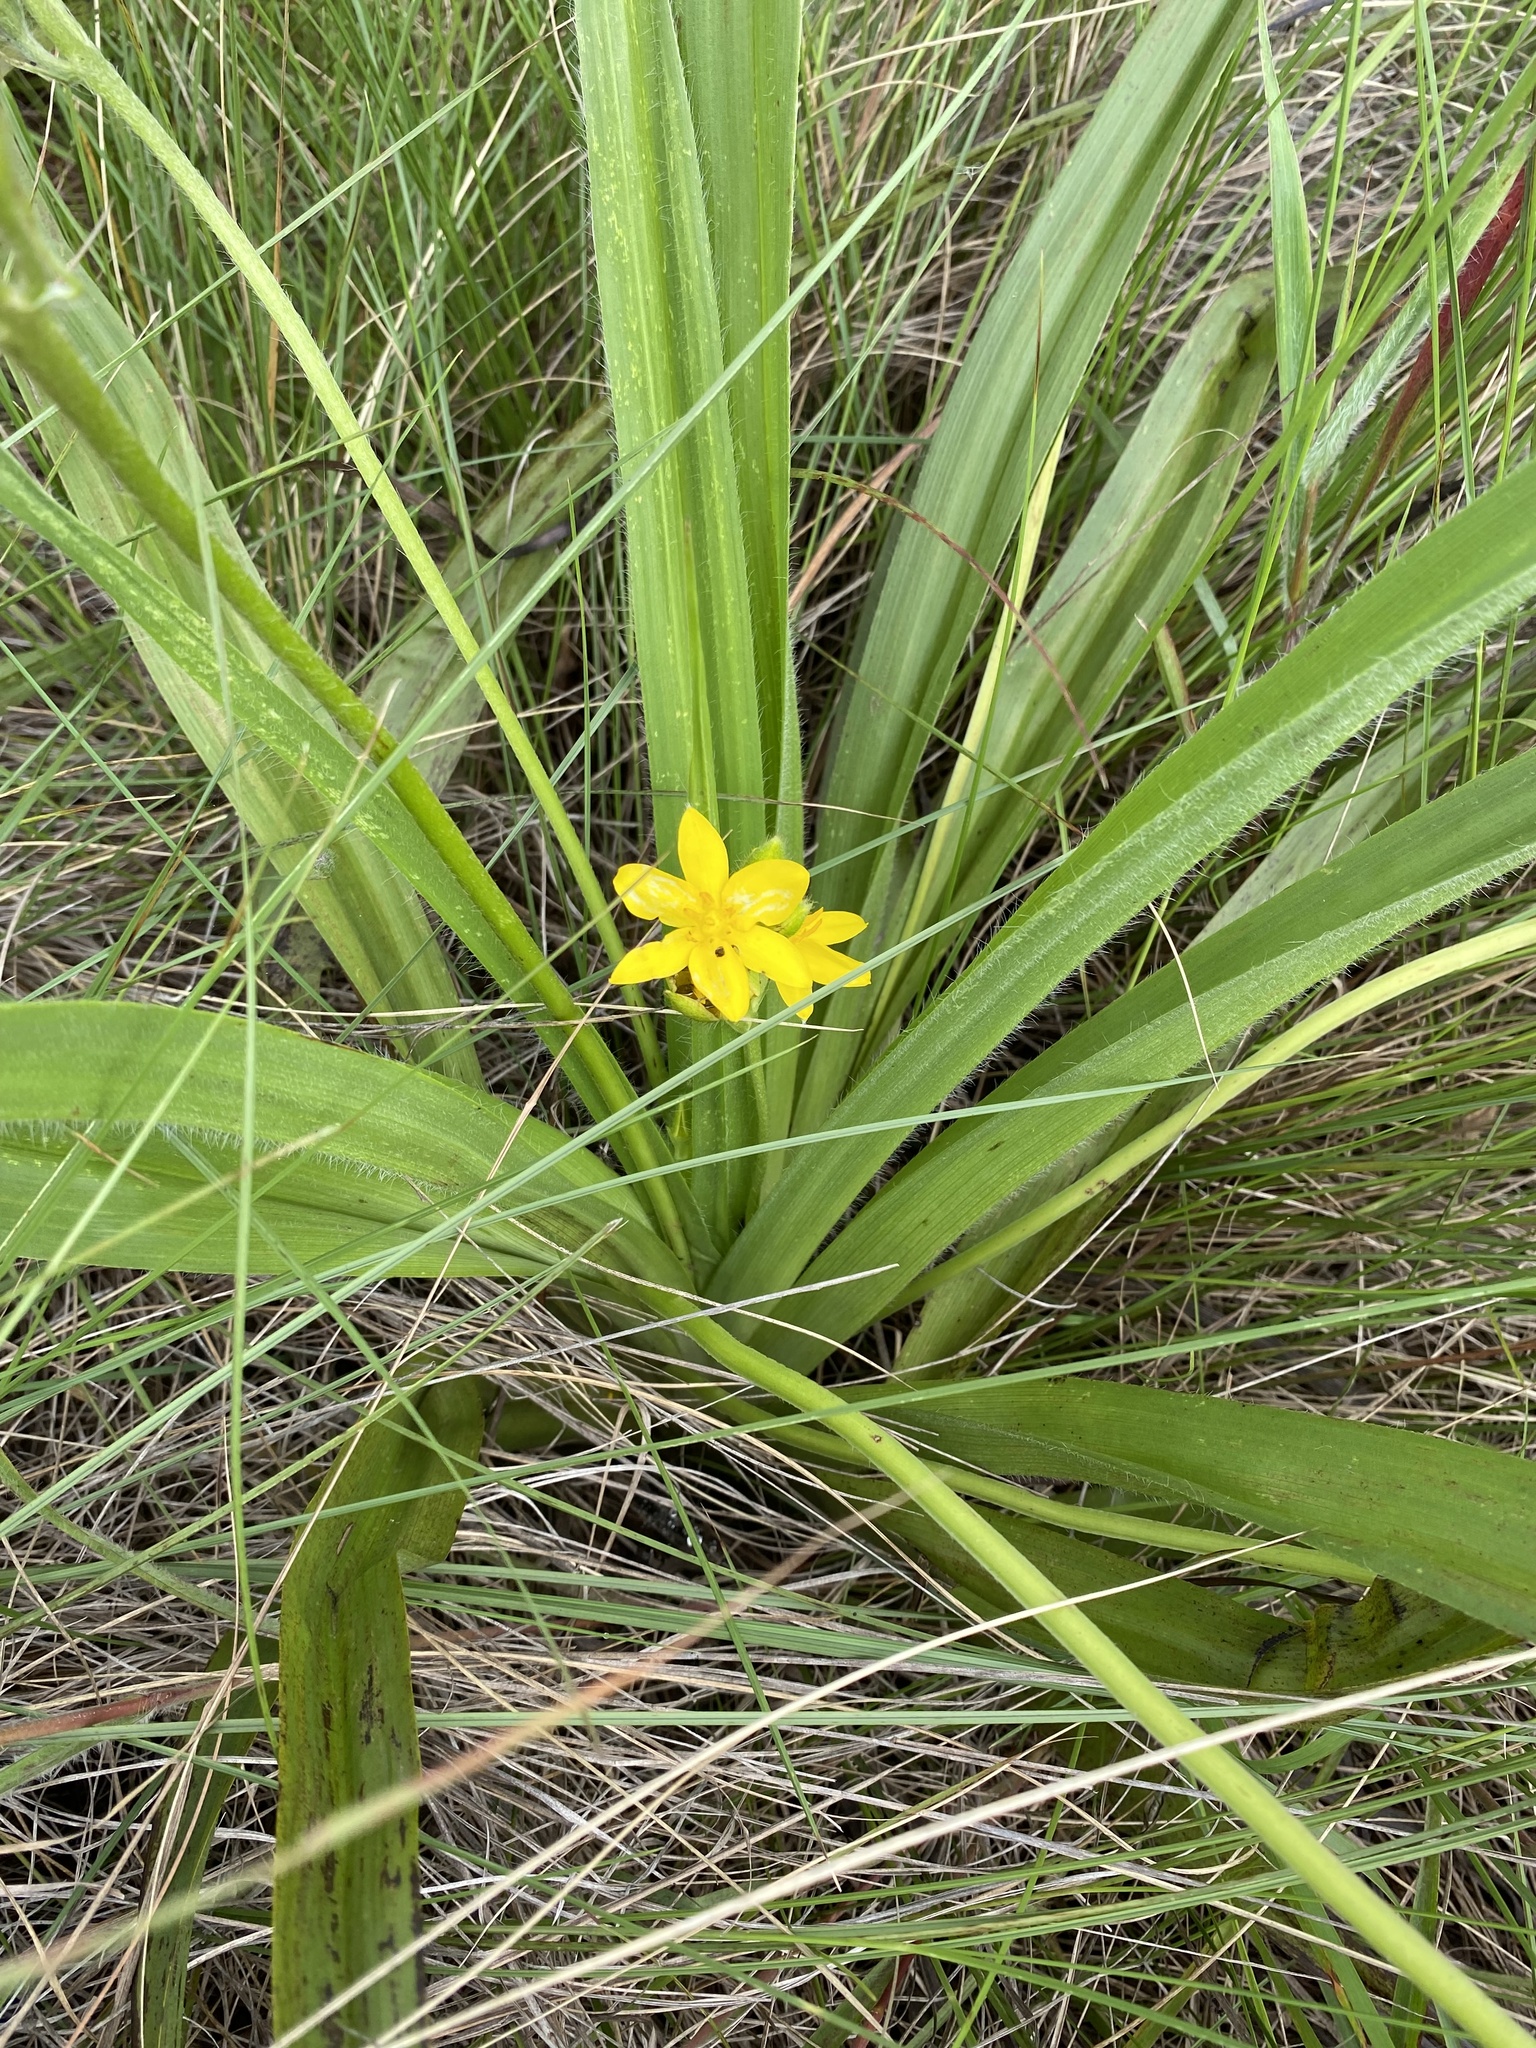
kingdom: Plantae
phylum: Tracheophyta
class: Liliopsida
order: Asparagales
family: Hypoxidaceae
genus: Hypoxis
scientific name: Hypoxis hemerocallidea
